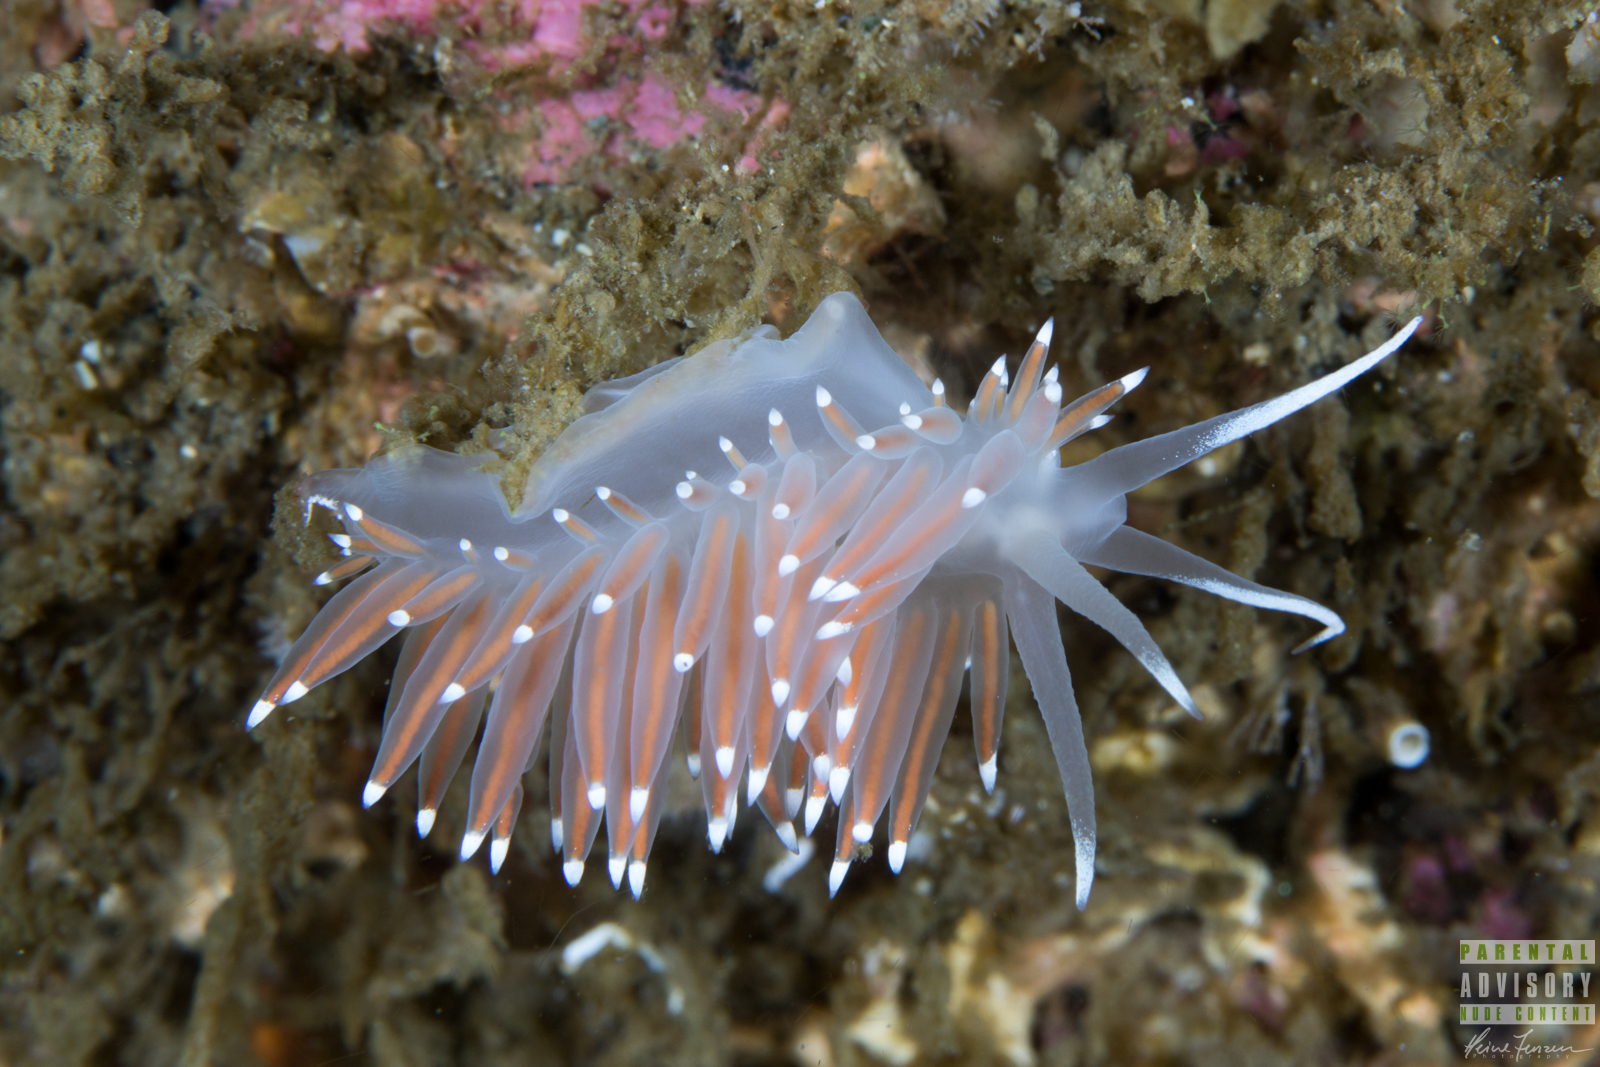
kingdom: Animalia
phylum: Mollusca
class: Gastropoda
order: Nudibranchia
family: Coryphellidae
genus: Coryphella
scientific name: Coryphella browni
